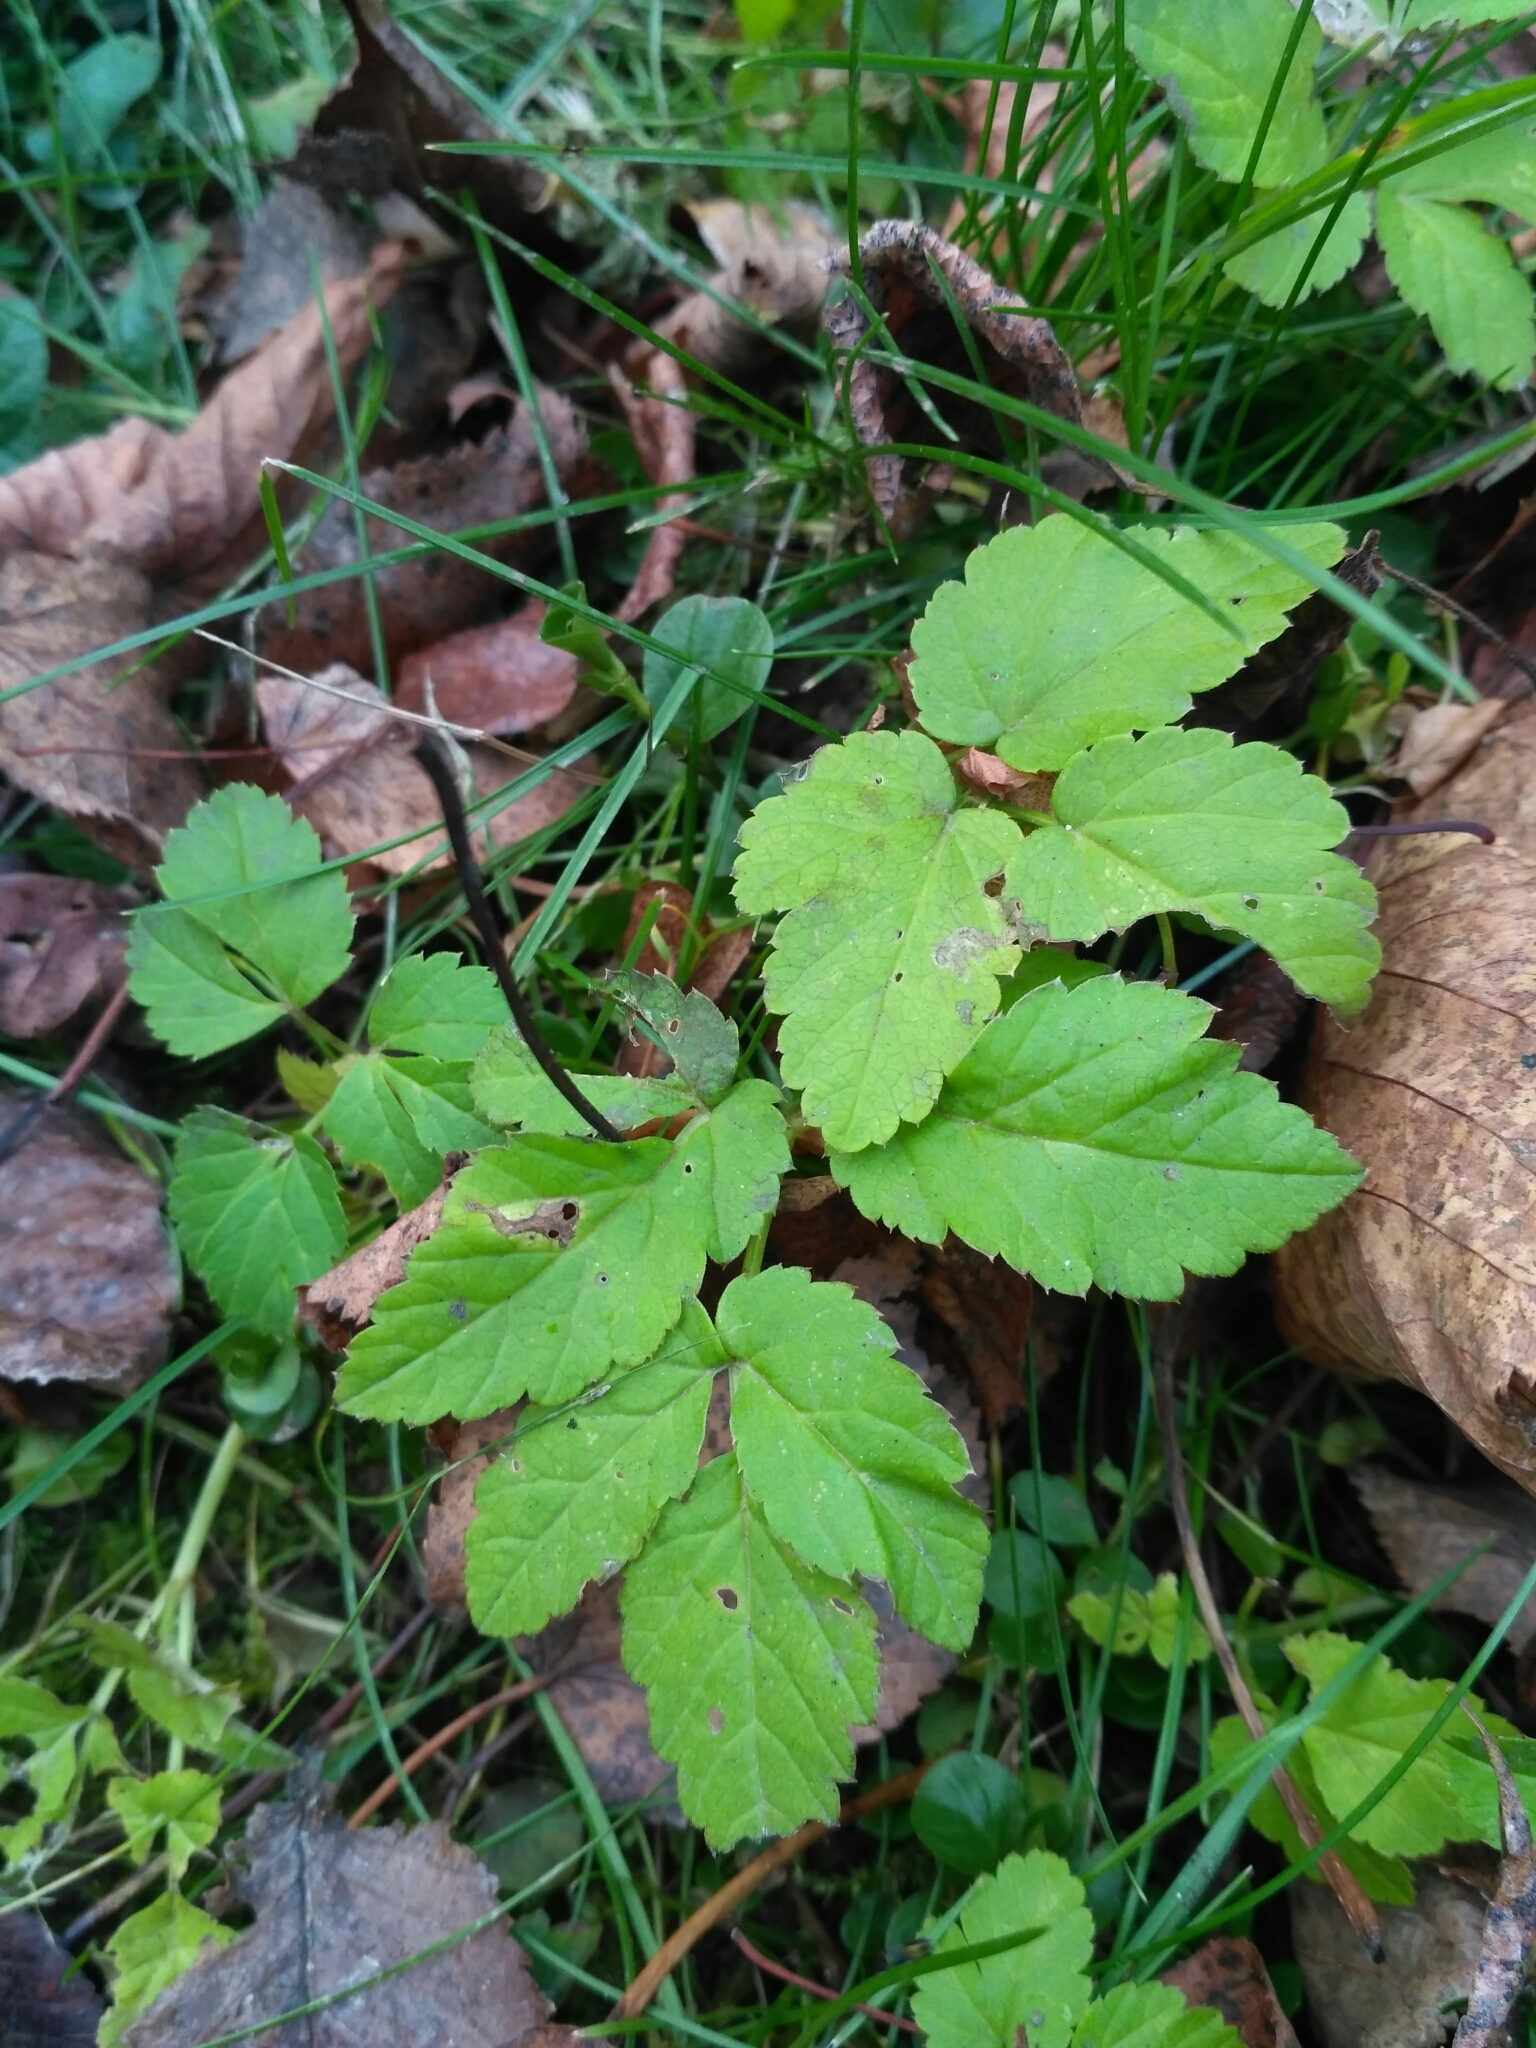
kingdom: Plantae
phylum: Tracheophyta
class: Magnoliopsida
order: Apiales
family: Apiaceae
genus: Aegopodium
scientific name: Aegopodium podagraria
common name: Ground-elder
